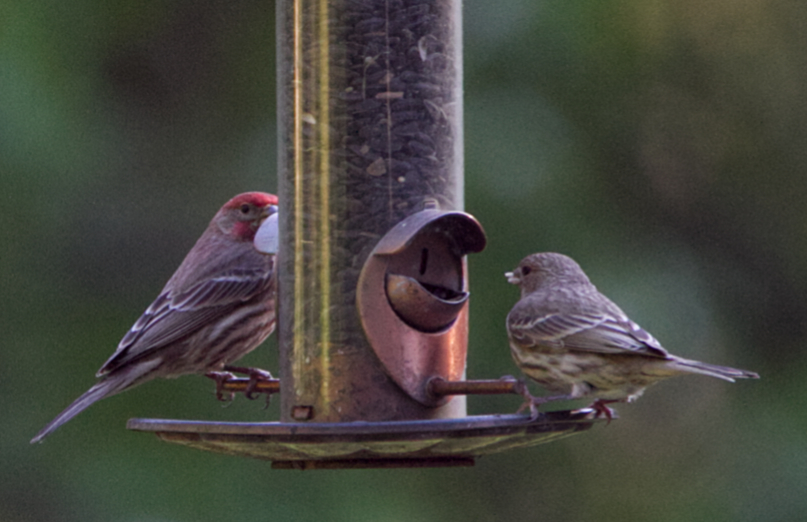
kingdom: Animalia
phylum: Chordata
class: Aves
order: Passeriformes
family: Fringillidae
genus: Haemorhous
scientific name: Haemorhous mexicanus
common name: House finch
